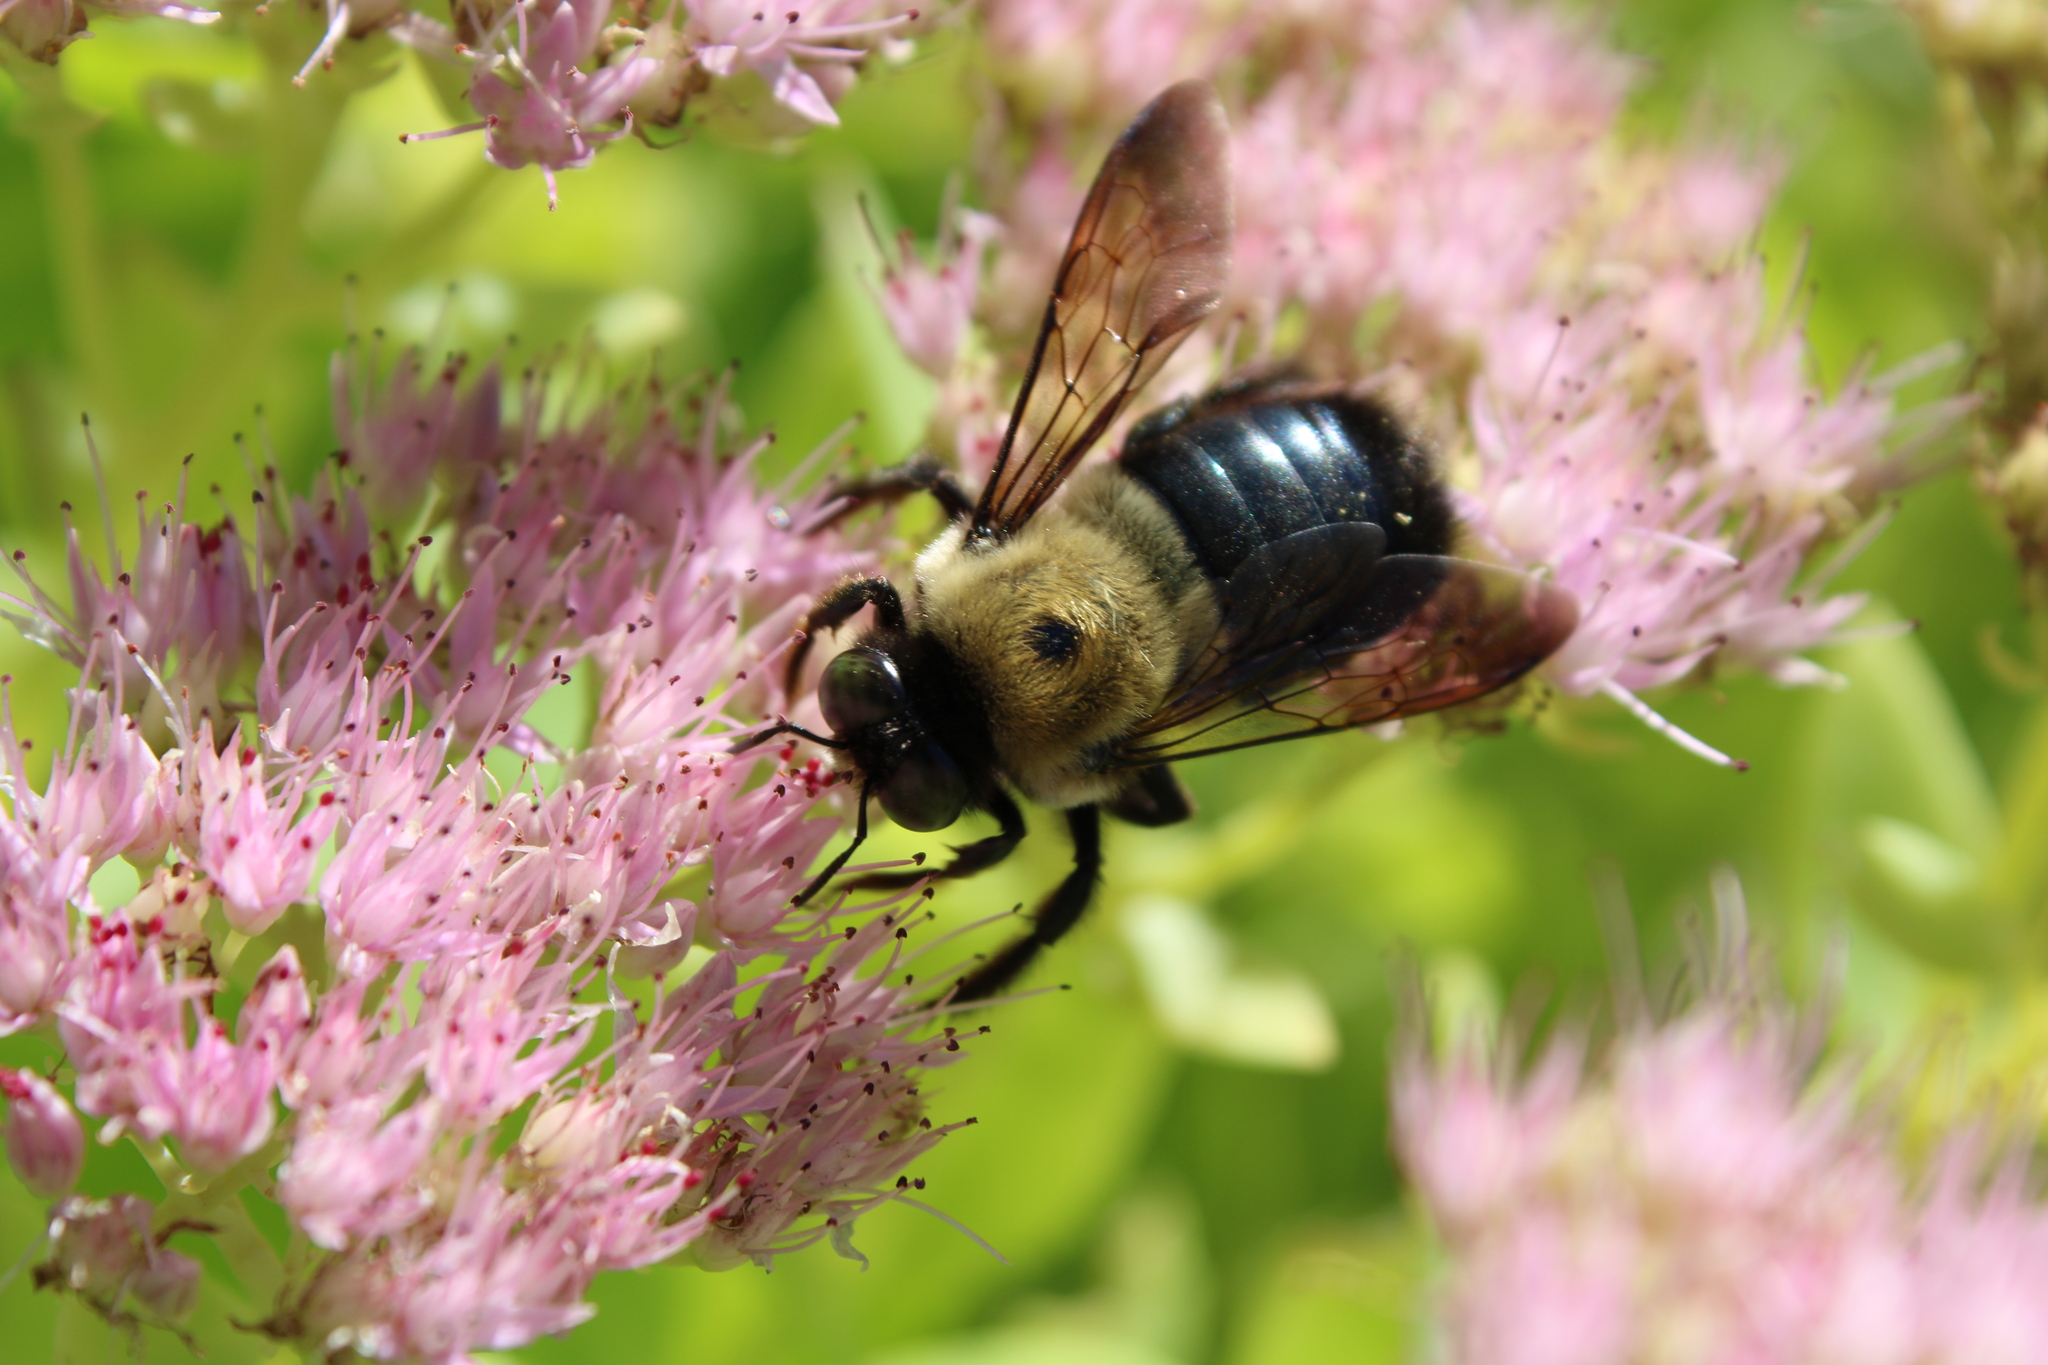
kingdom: Animalia
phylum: Arthropoda
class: Insecta
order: Hymenoptera
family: Apidae
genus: Xylocopa
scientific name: Xylocopa virginica
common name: Carpenter bee
